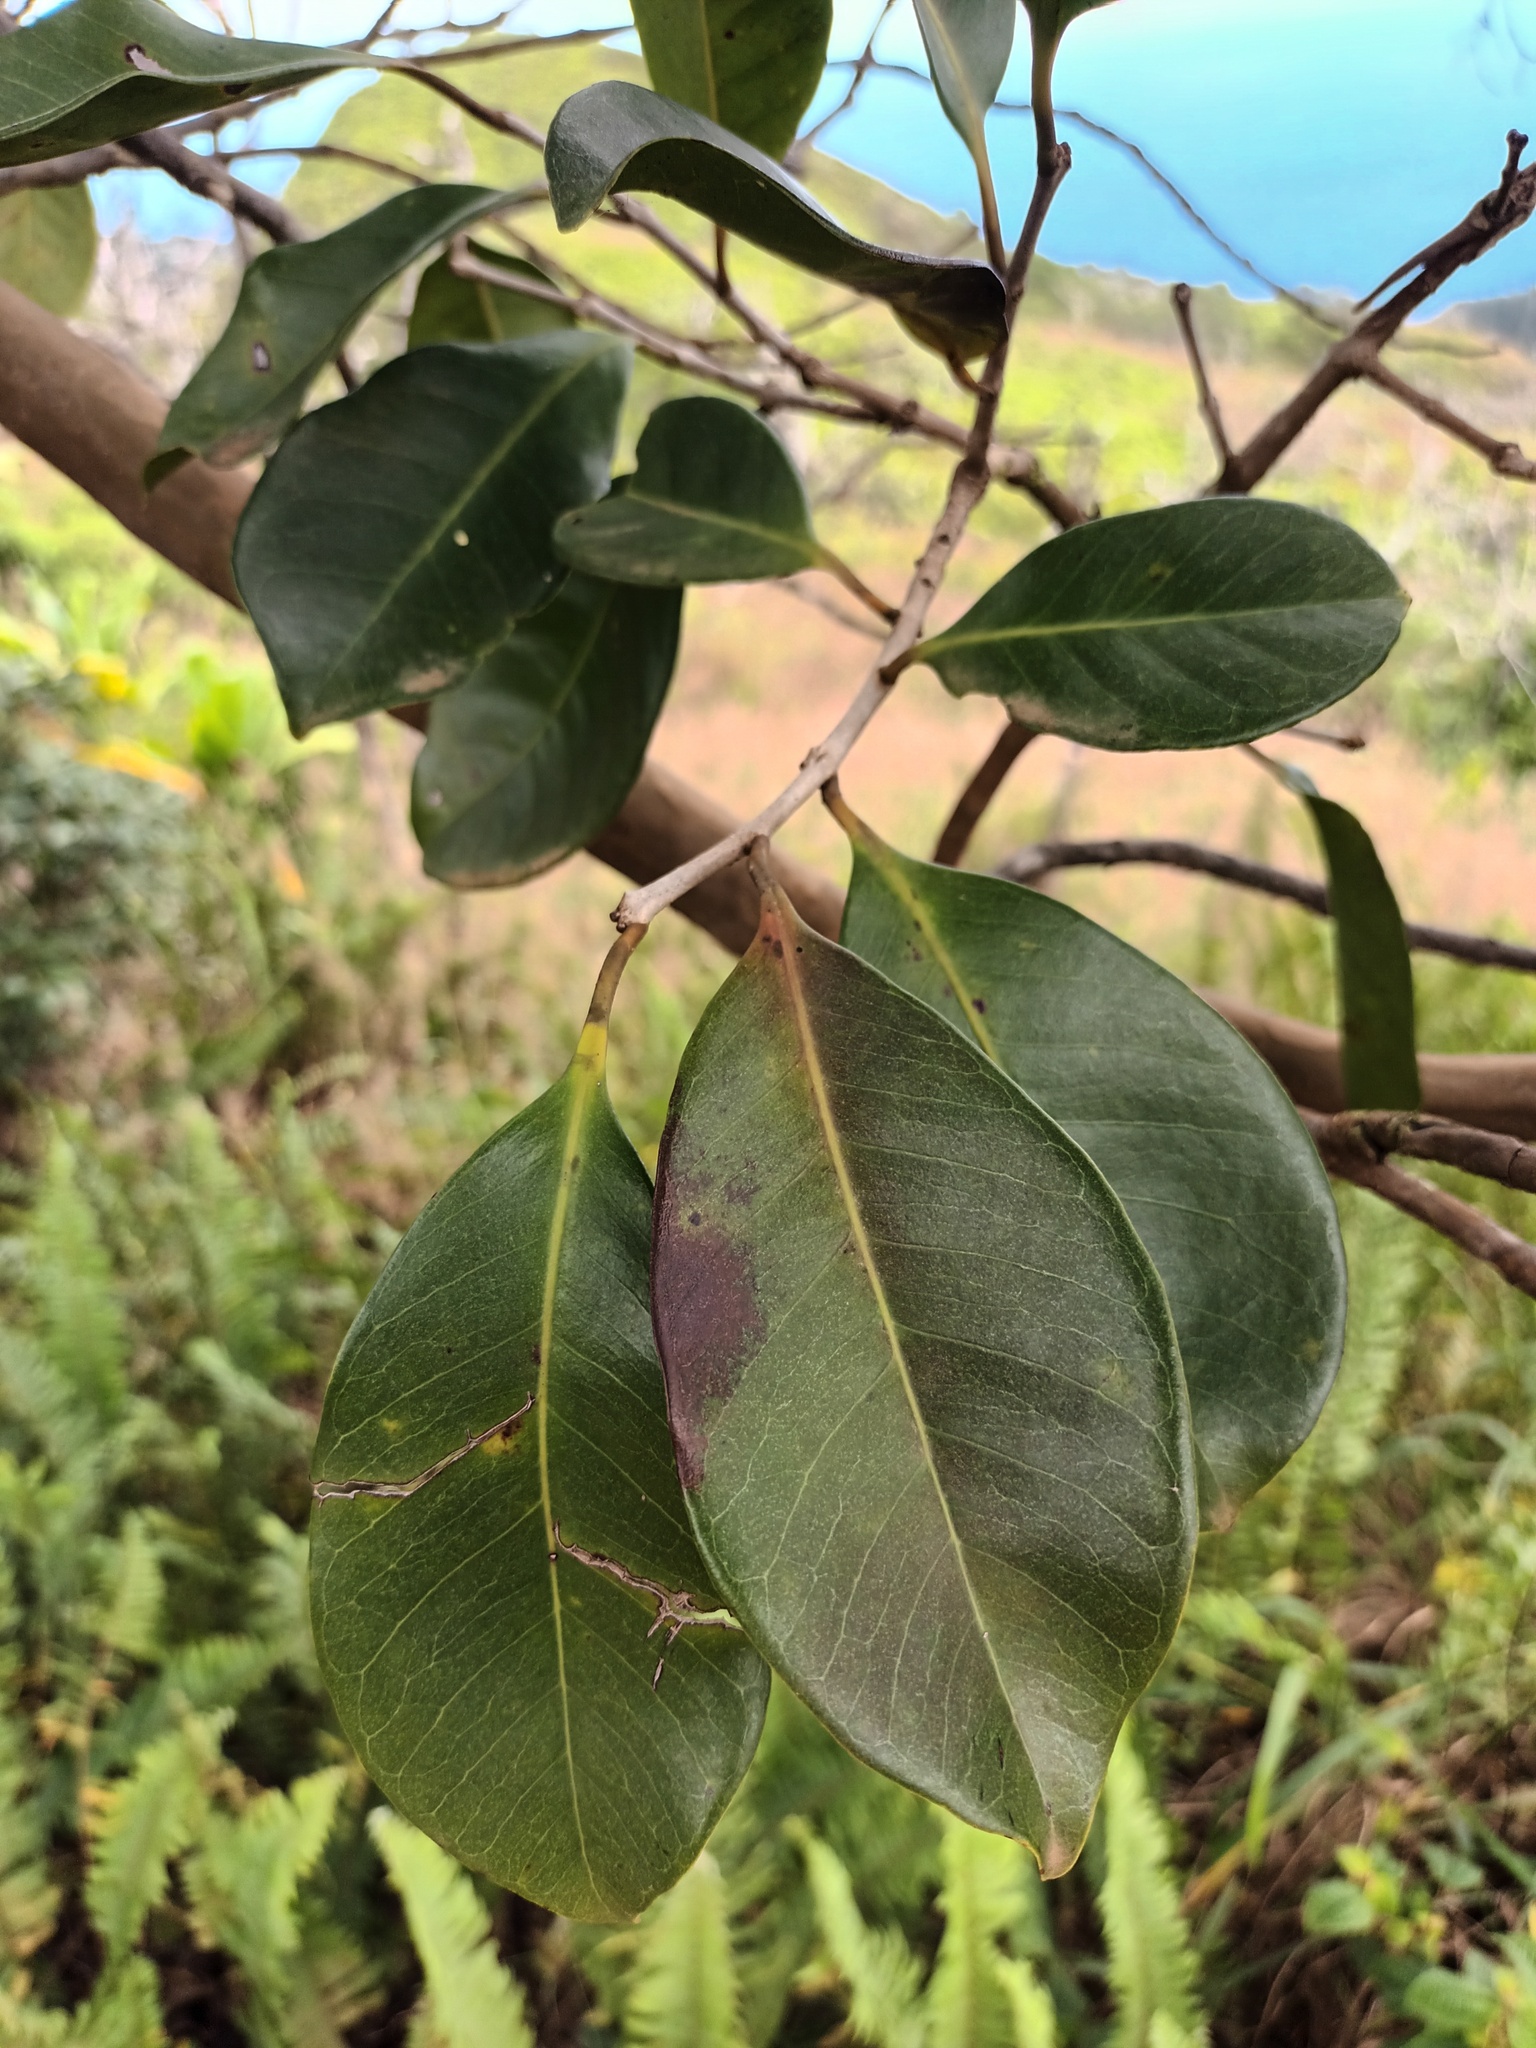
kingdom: Plantae
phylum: Tracheophyta
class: Magnoliopsida
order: Myrtales
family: Myrtaceae
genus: Psidium
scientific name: Psidium cattleianum
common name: Strawberry guava
